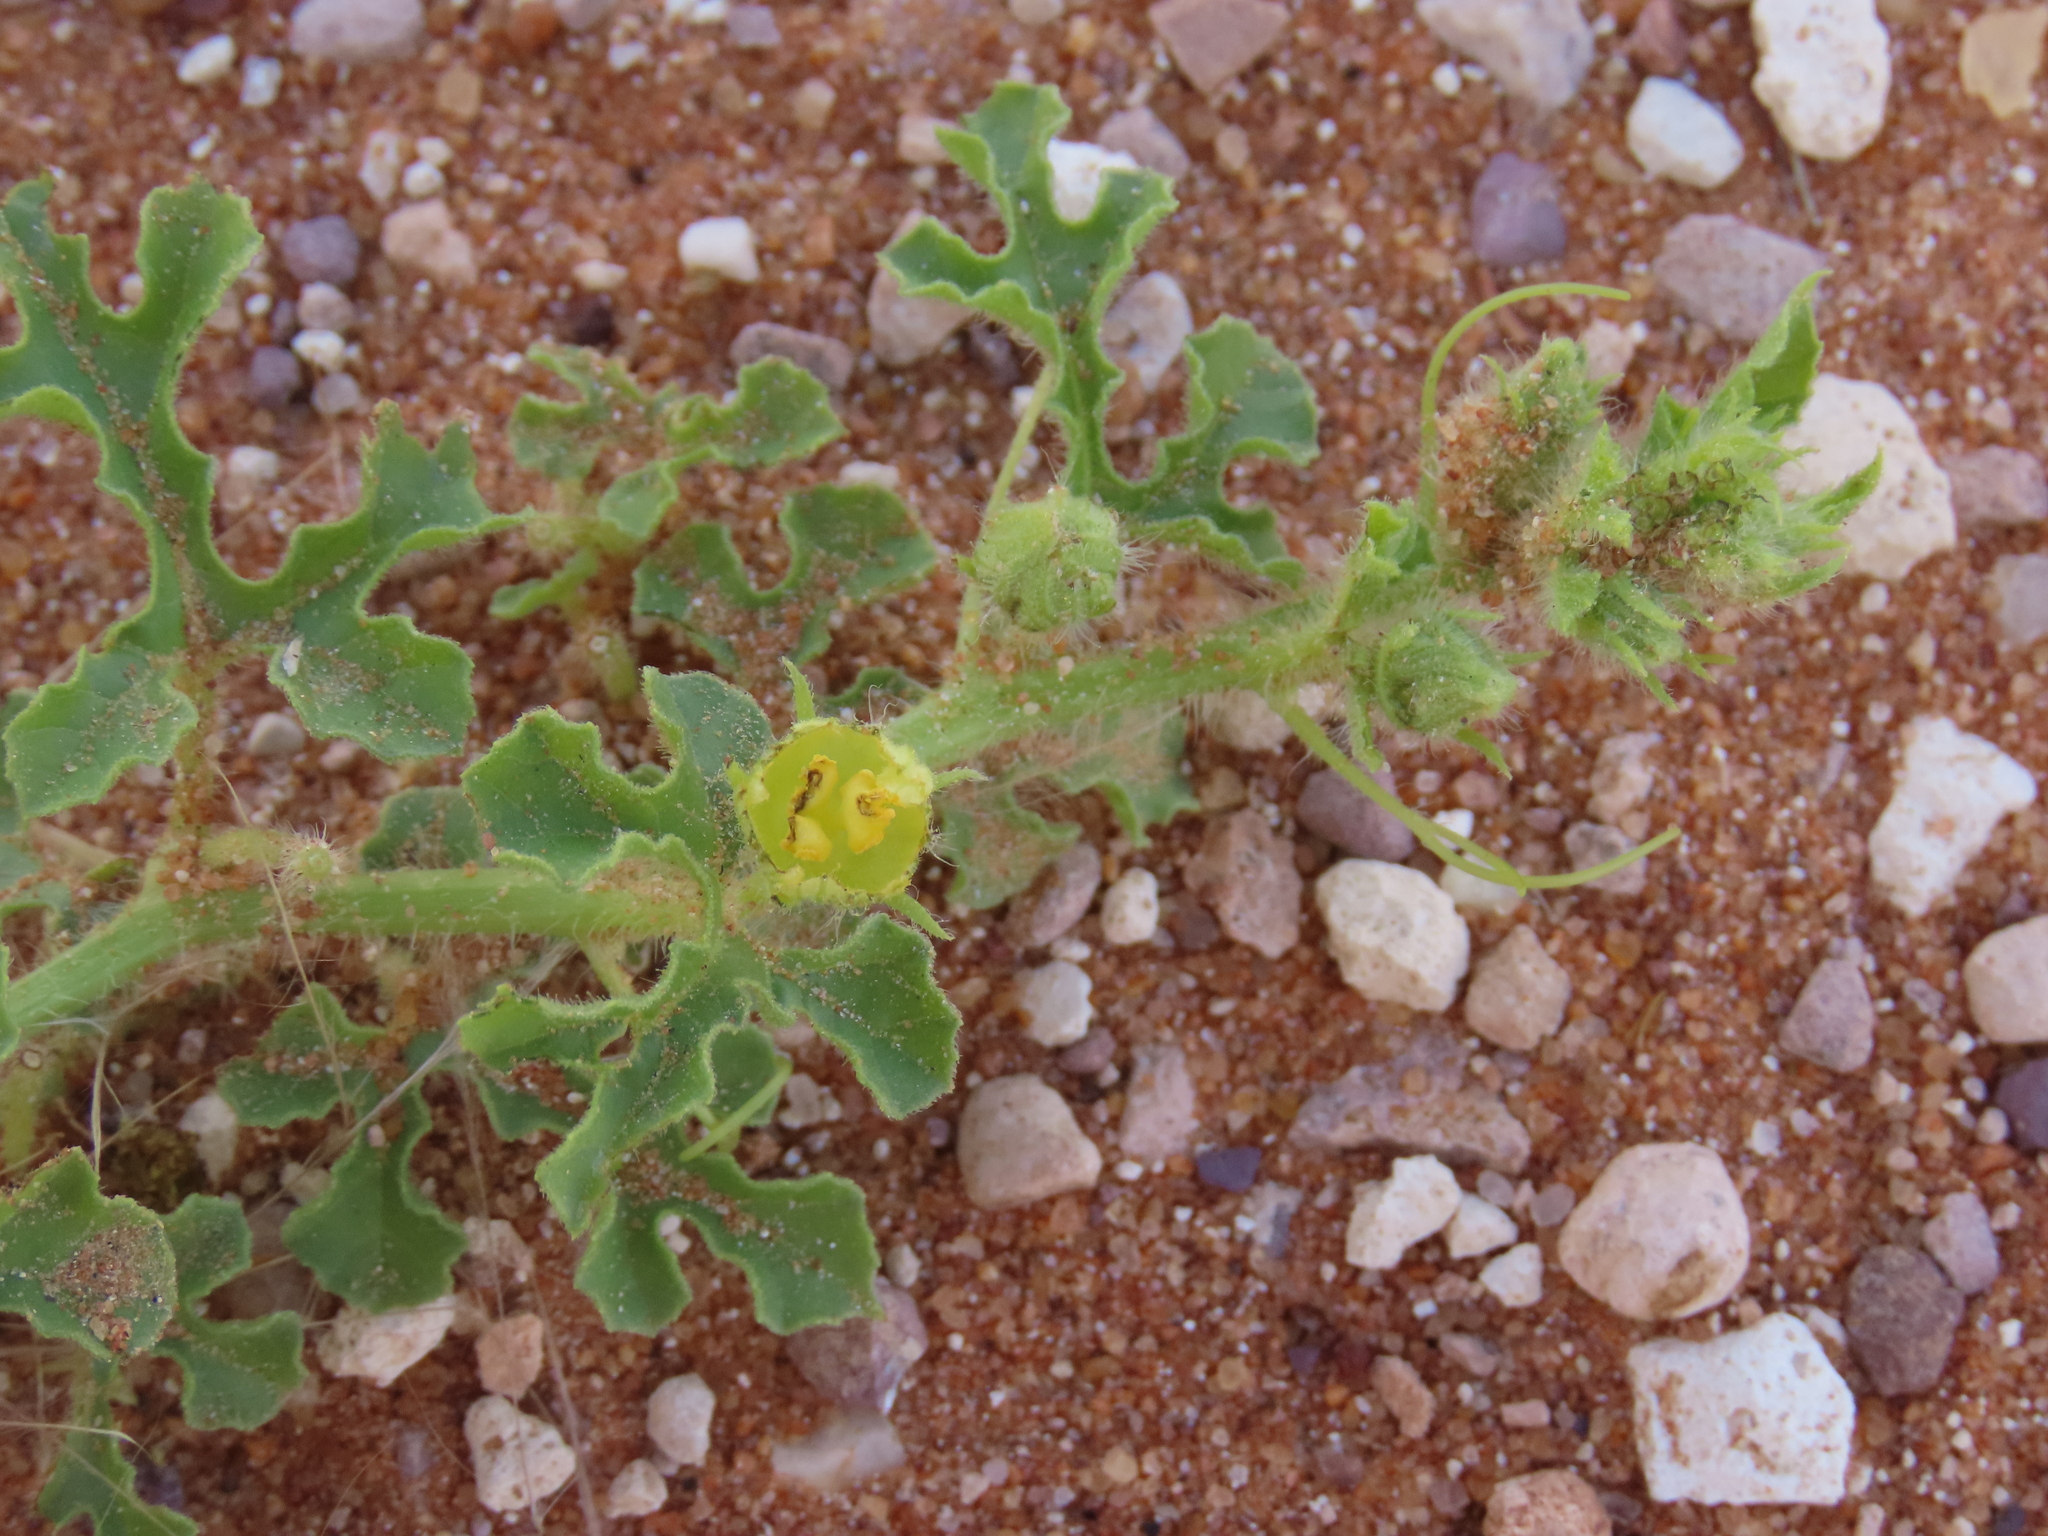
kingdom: Plantae
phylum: Tracheophyta
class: Magnoliopsida
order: Cucurbitales
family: Cucurbitaceae
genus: Citrullus
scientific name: Citrullus amarus
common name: Fodder-melon
